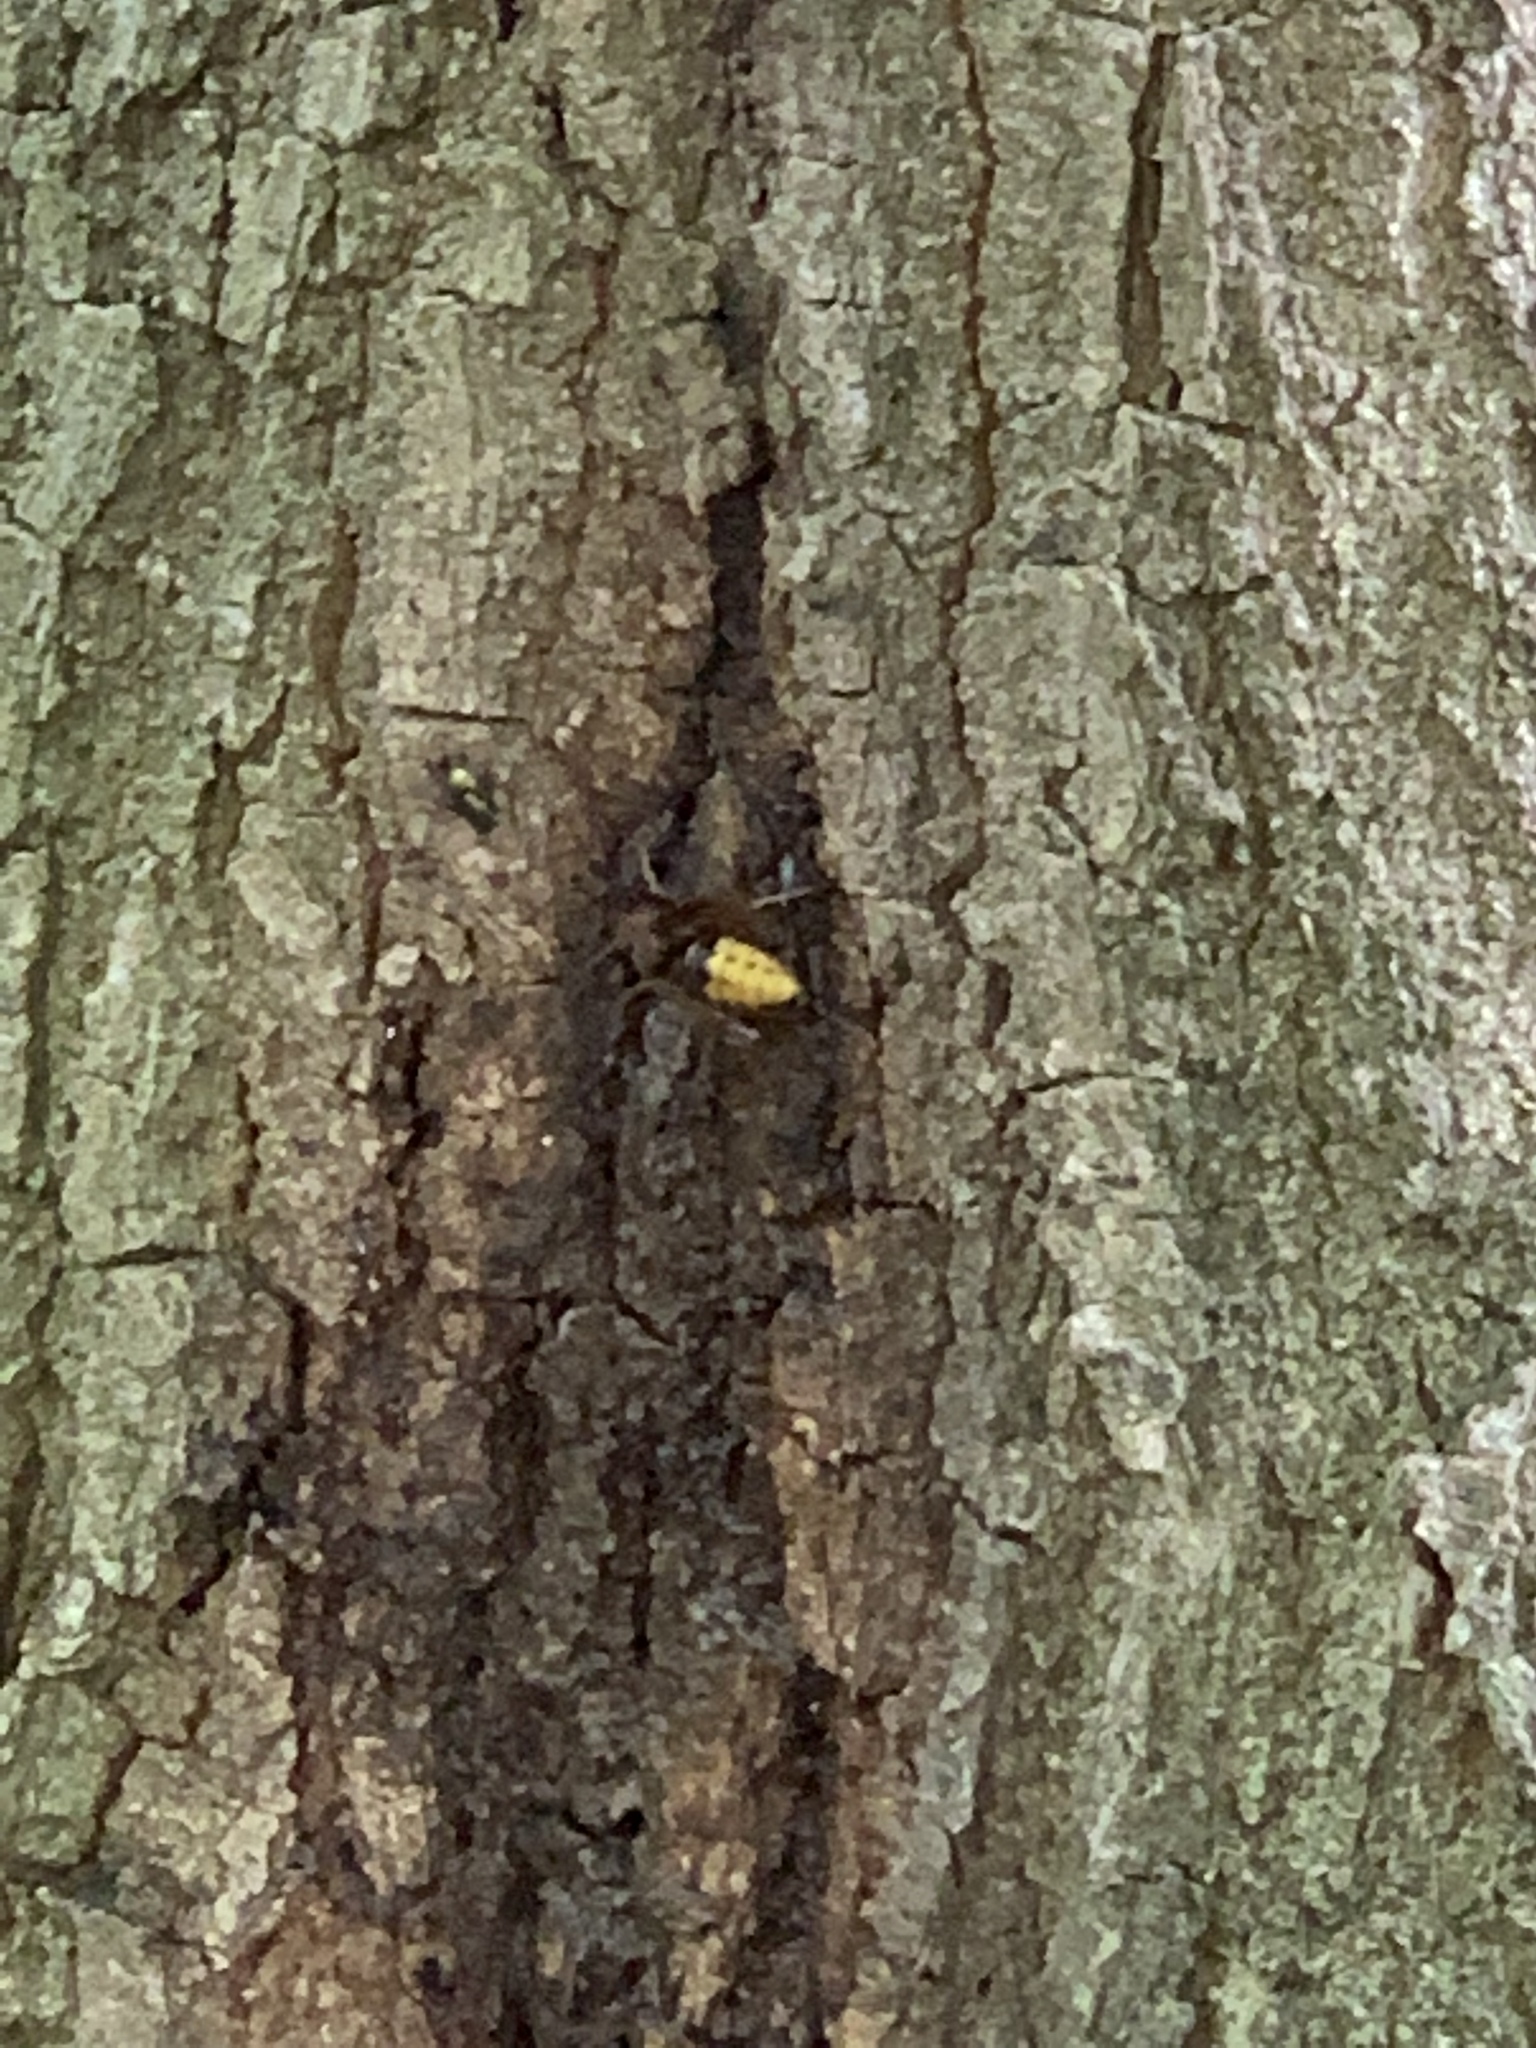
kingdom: Animalia
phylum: Arthropoda
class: Insecta
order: Hymenoptera
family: Vespidae
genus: Vespa
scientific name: Vespa crabro
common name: Hornet
